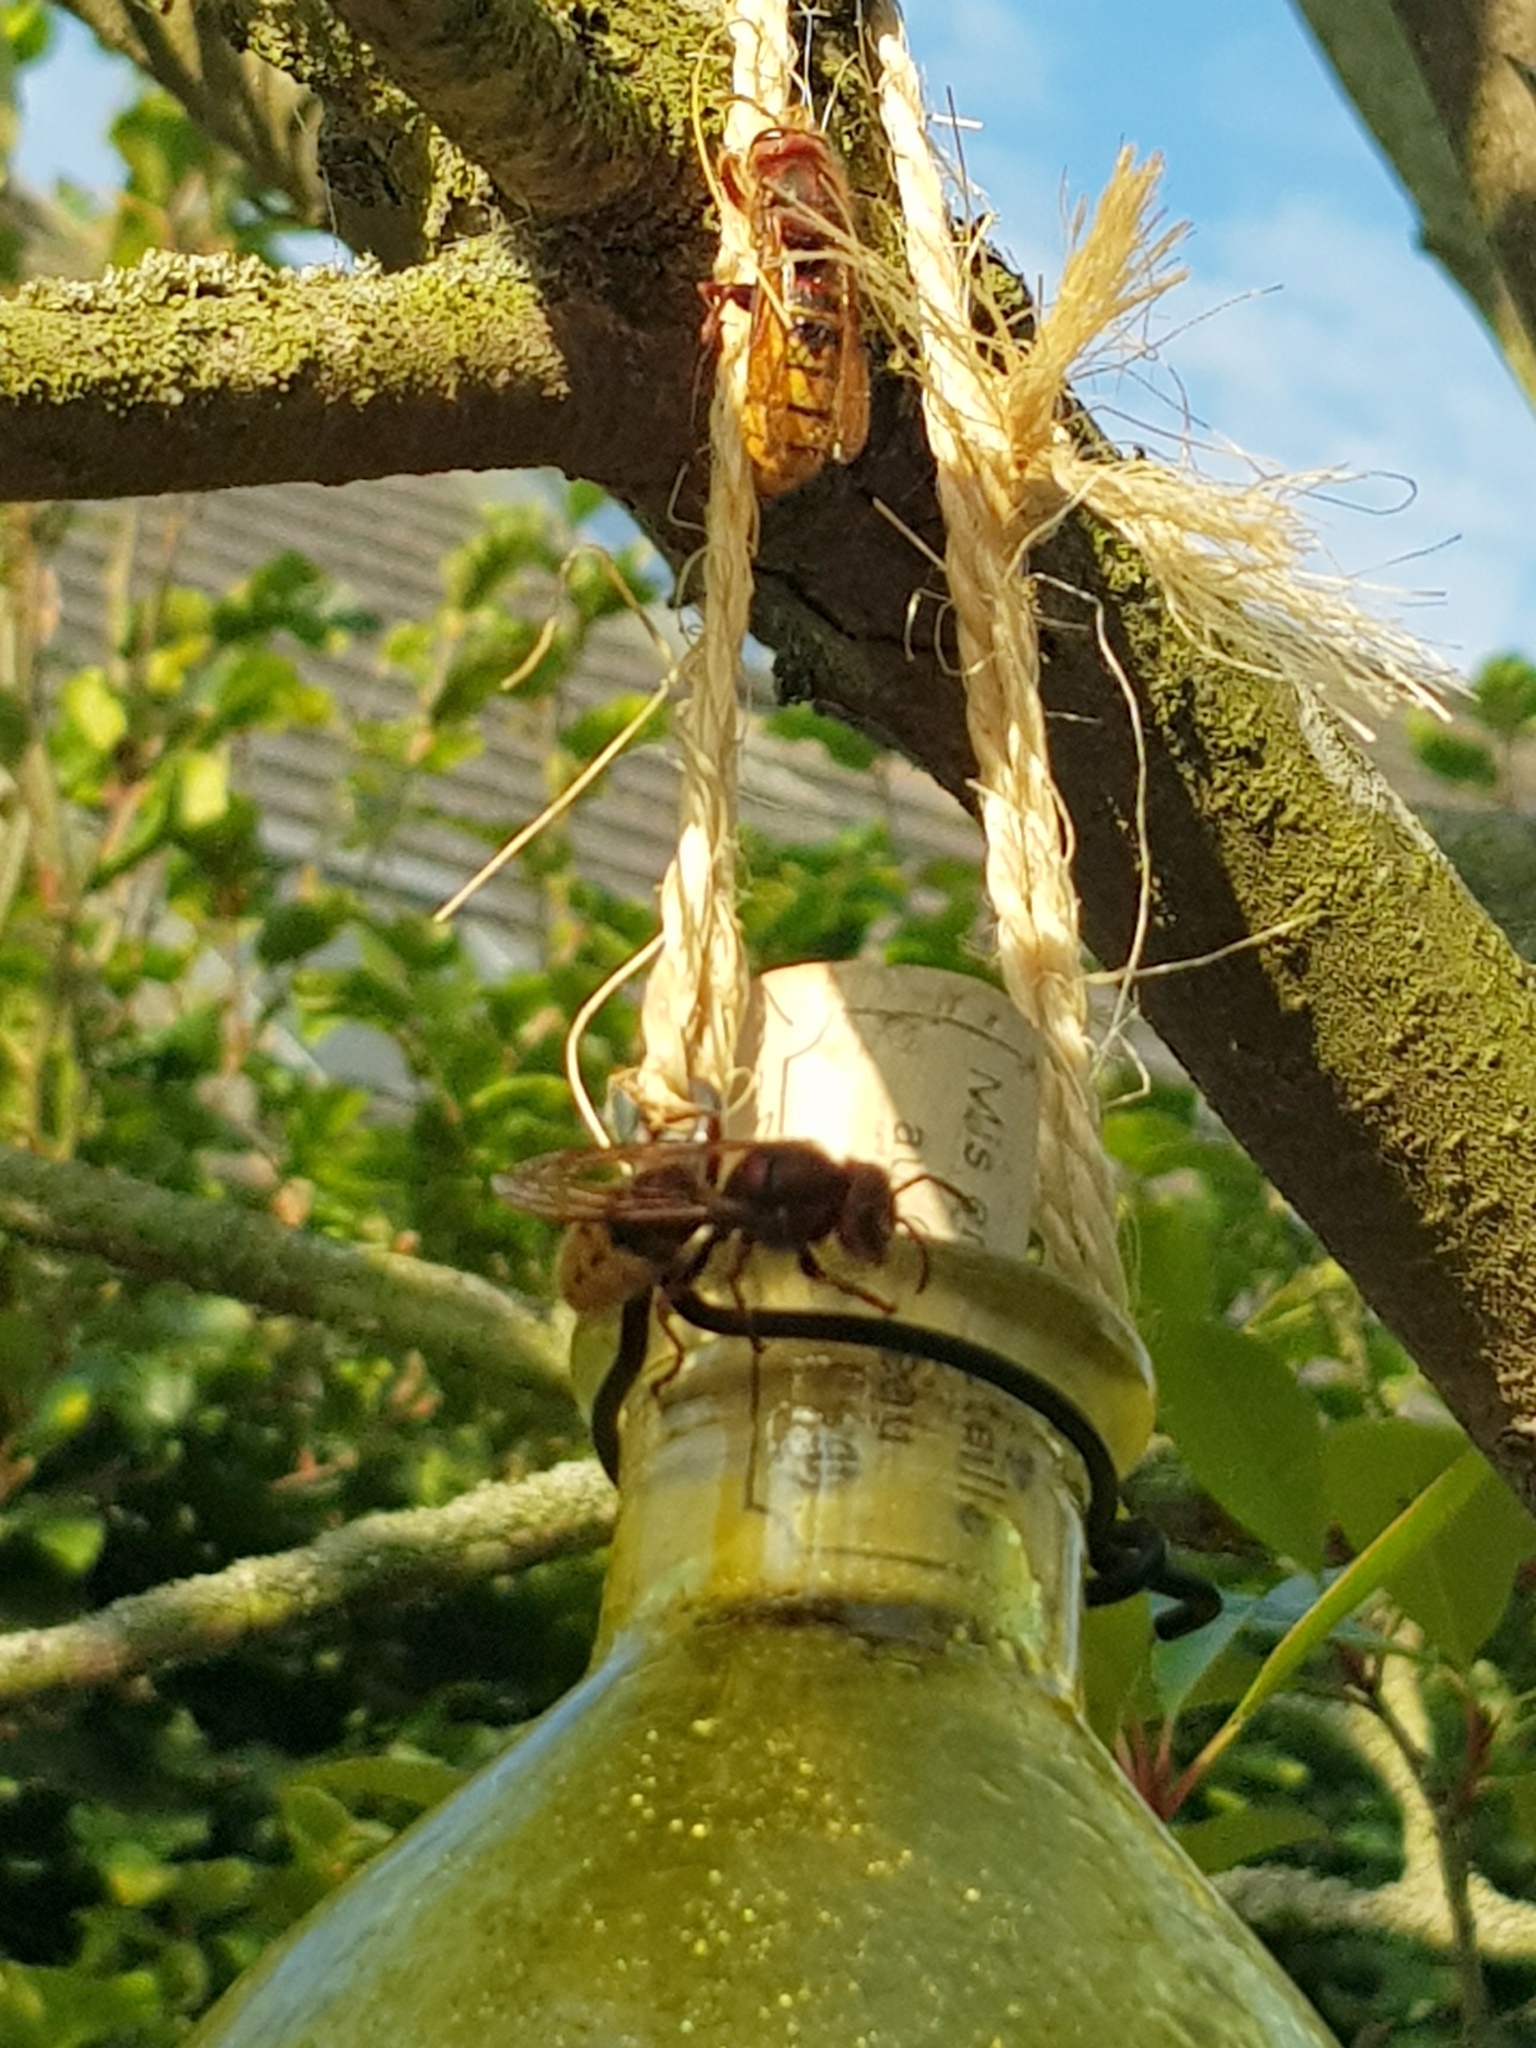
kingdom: Animalia
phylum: Arthropoda
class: Insecta
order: Hymenoptera
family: Vespidae
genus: Vespa
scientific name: Vespa crabro
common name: Hornet
